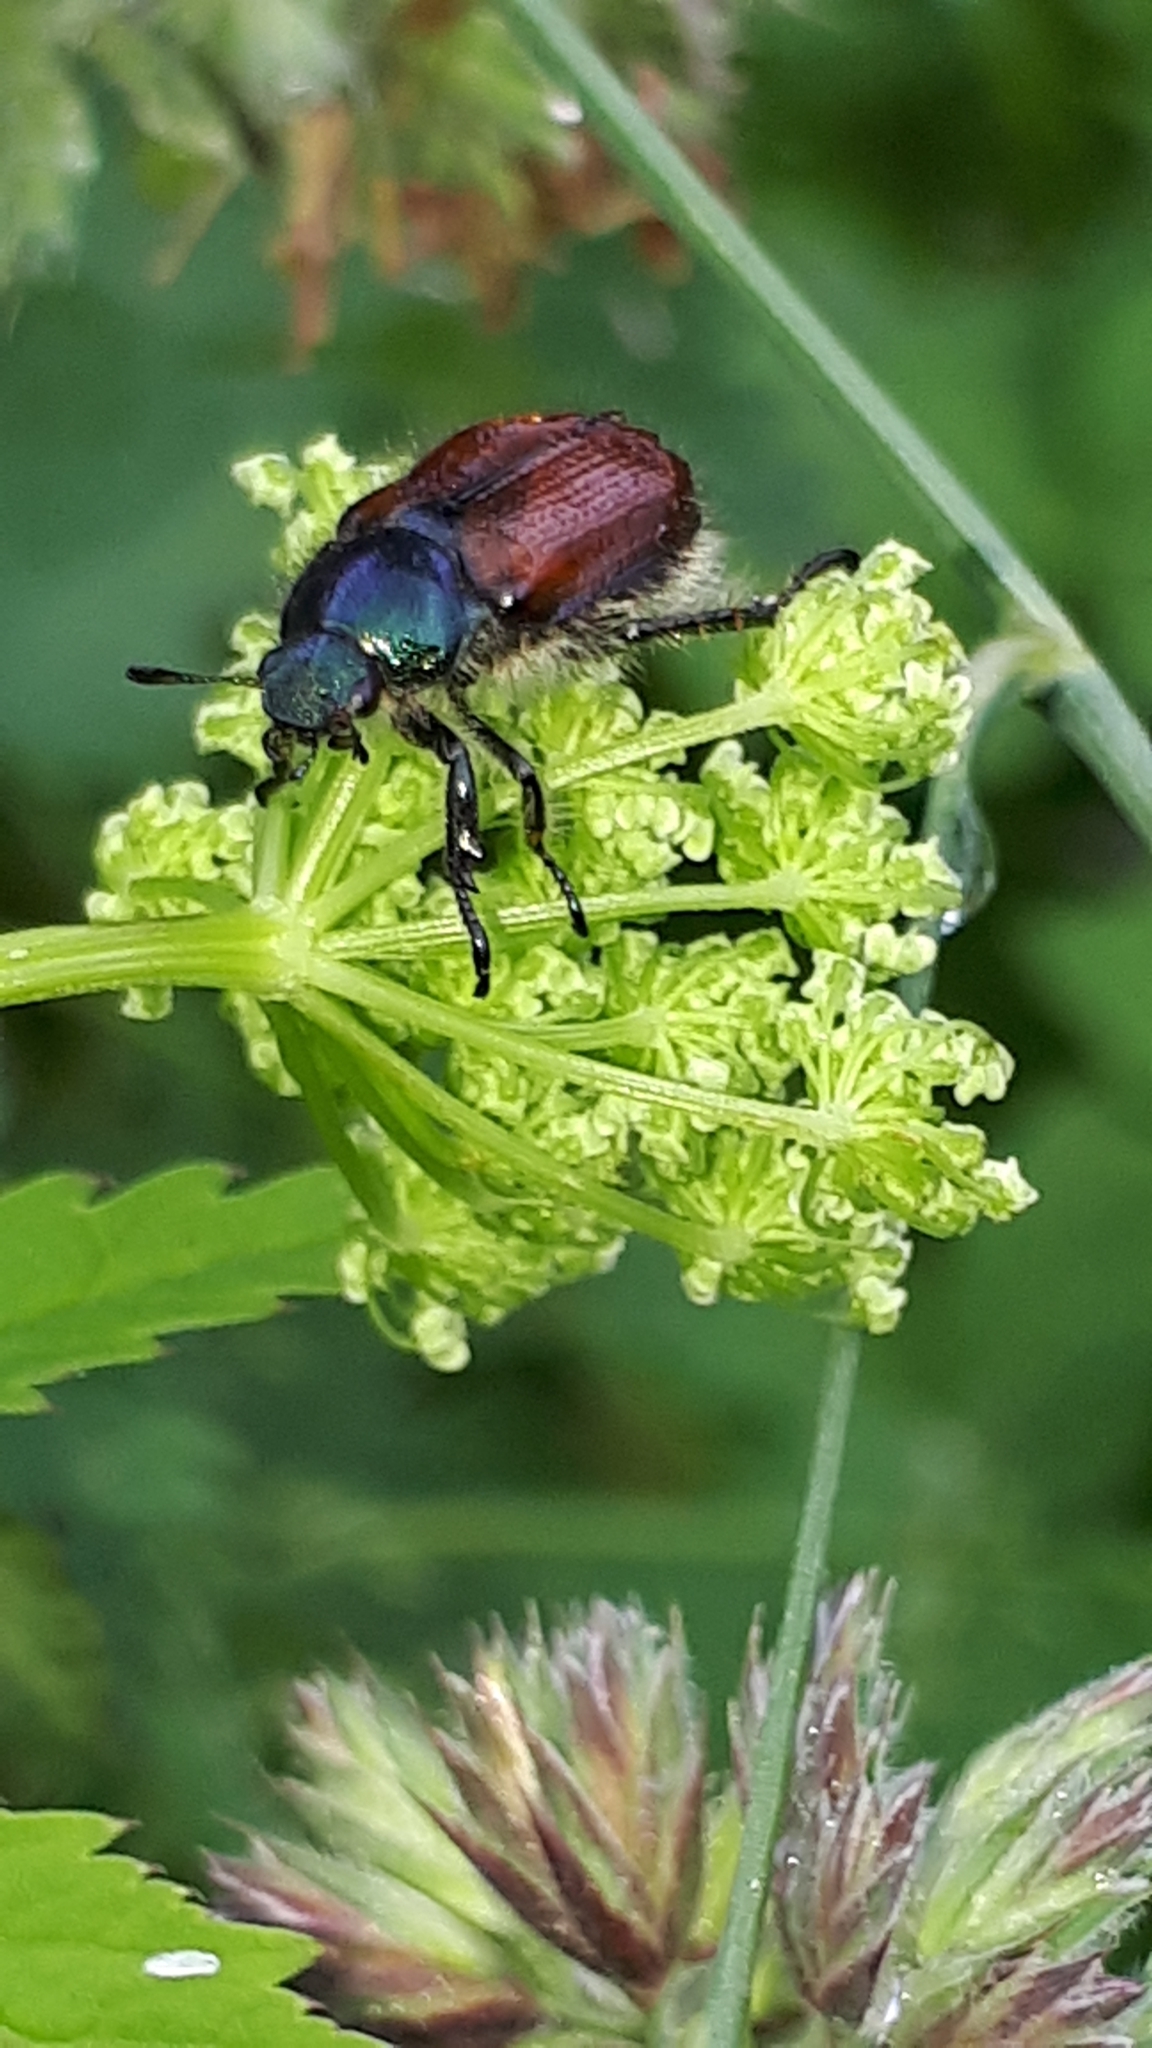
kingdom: Animalia
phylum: Arthropoda
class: Insecta
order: Coleoptera
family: Scarabaeidae
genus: Phyllopertha
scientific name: Phyllopertha horticola
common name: Garden chafer
